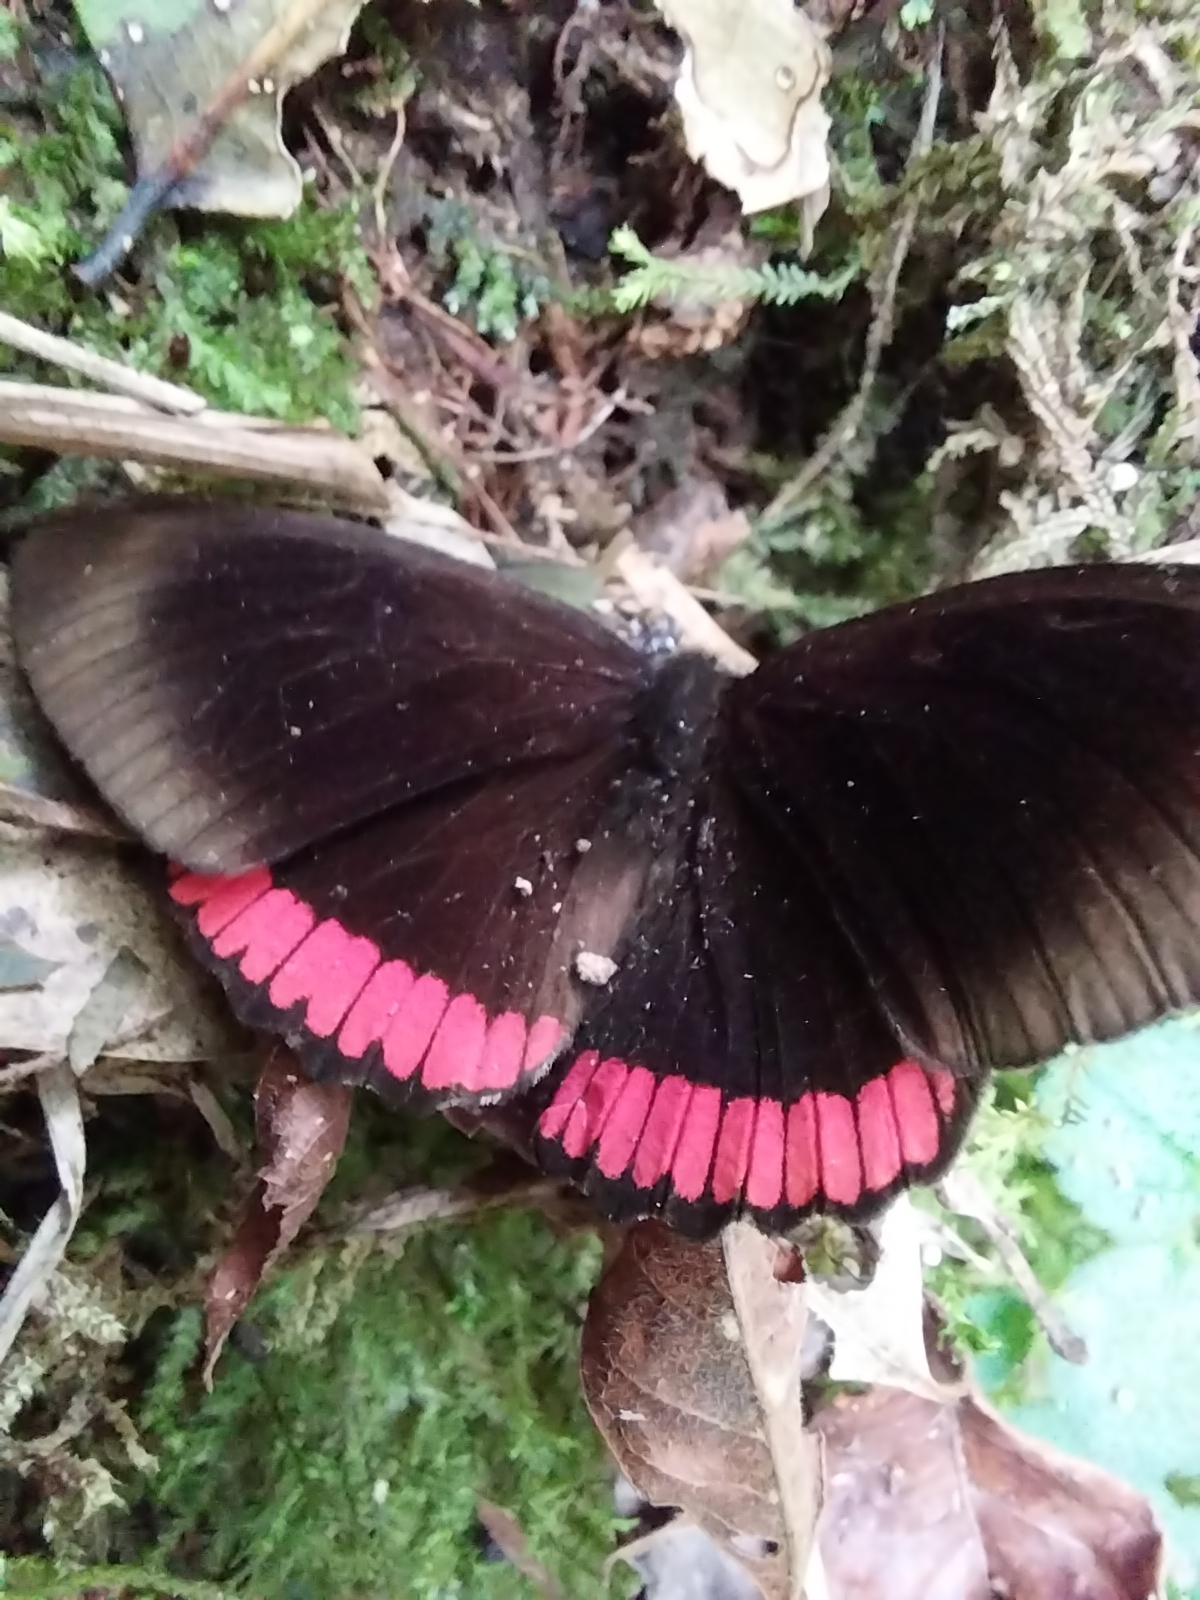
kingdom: Animalia
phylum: Arthropoda
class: Insecta
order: Lepidoptera
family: Sesiidae
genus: Sesia
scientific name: Sesia Biblis hyperia
